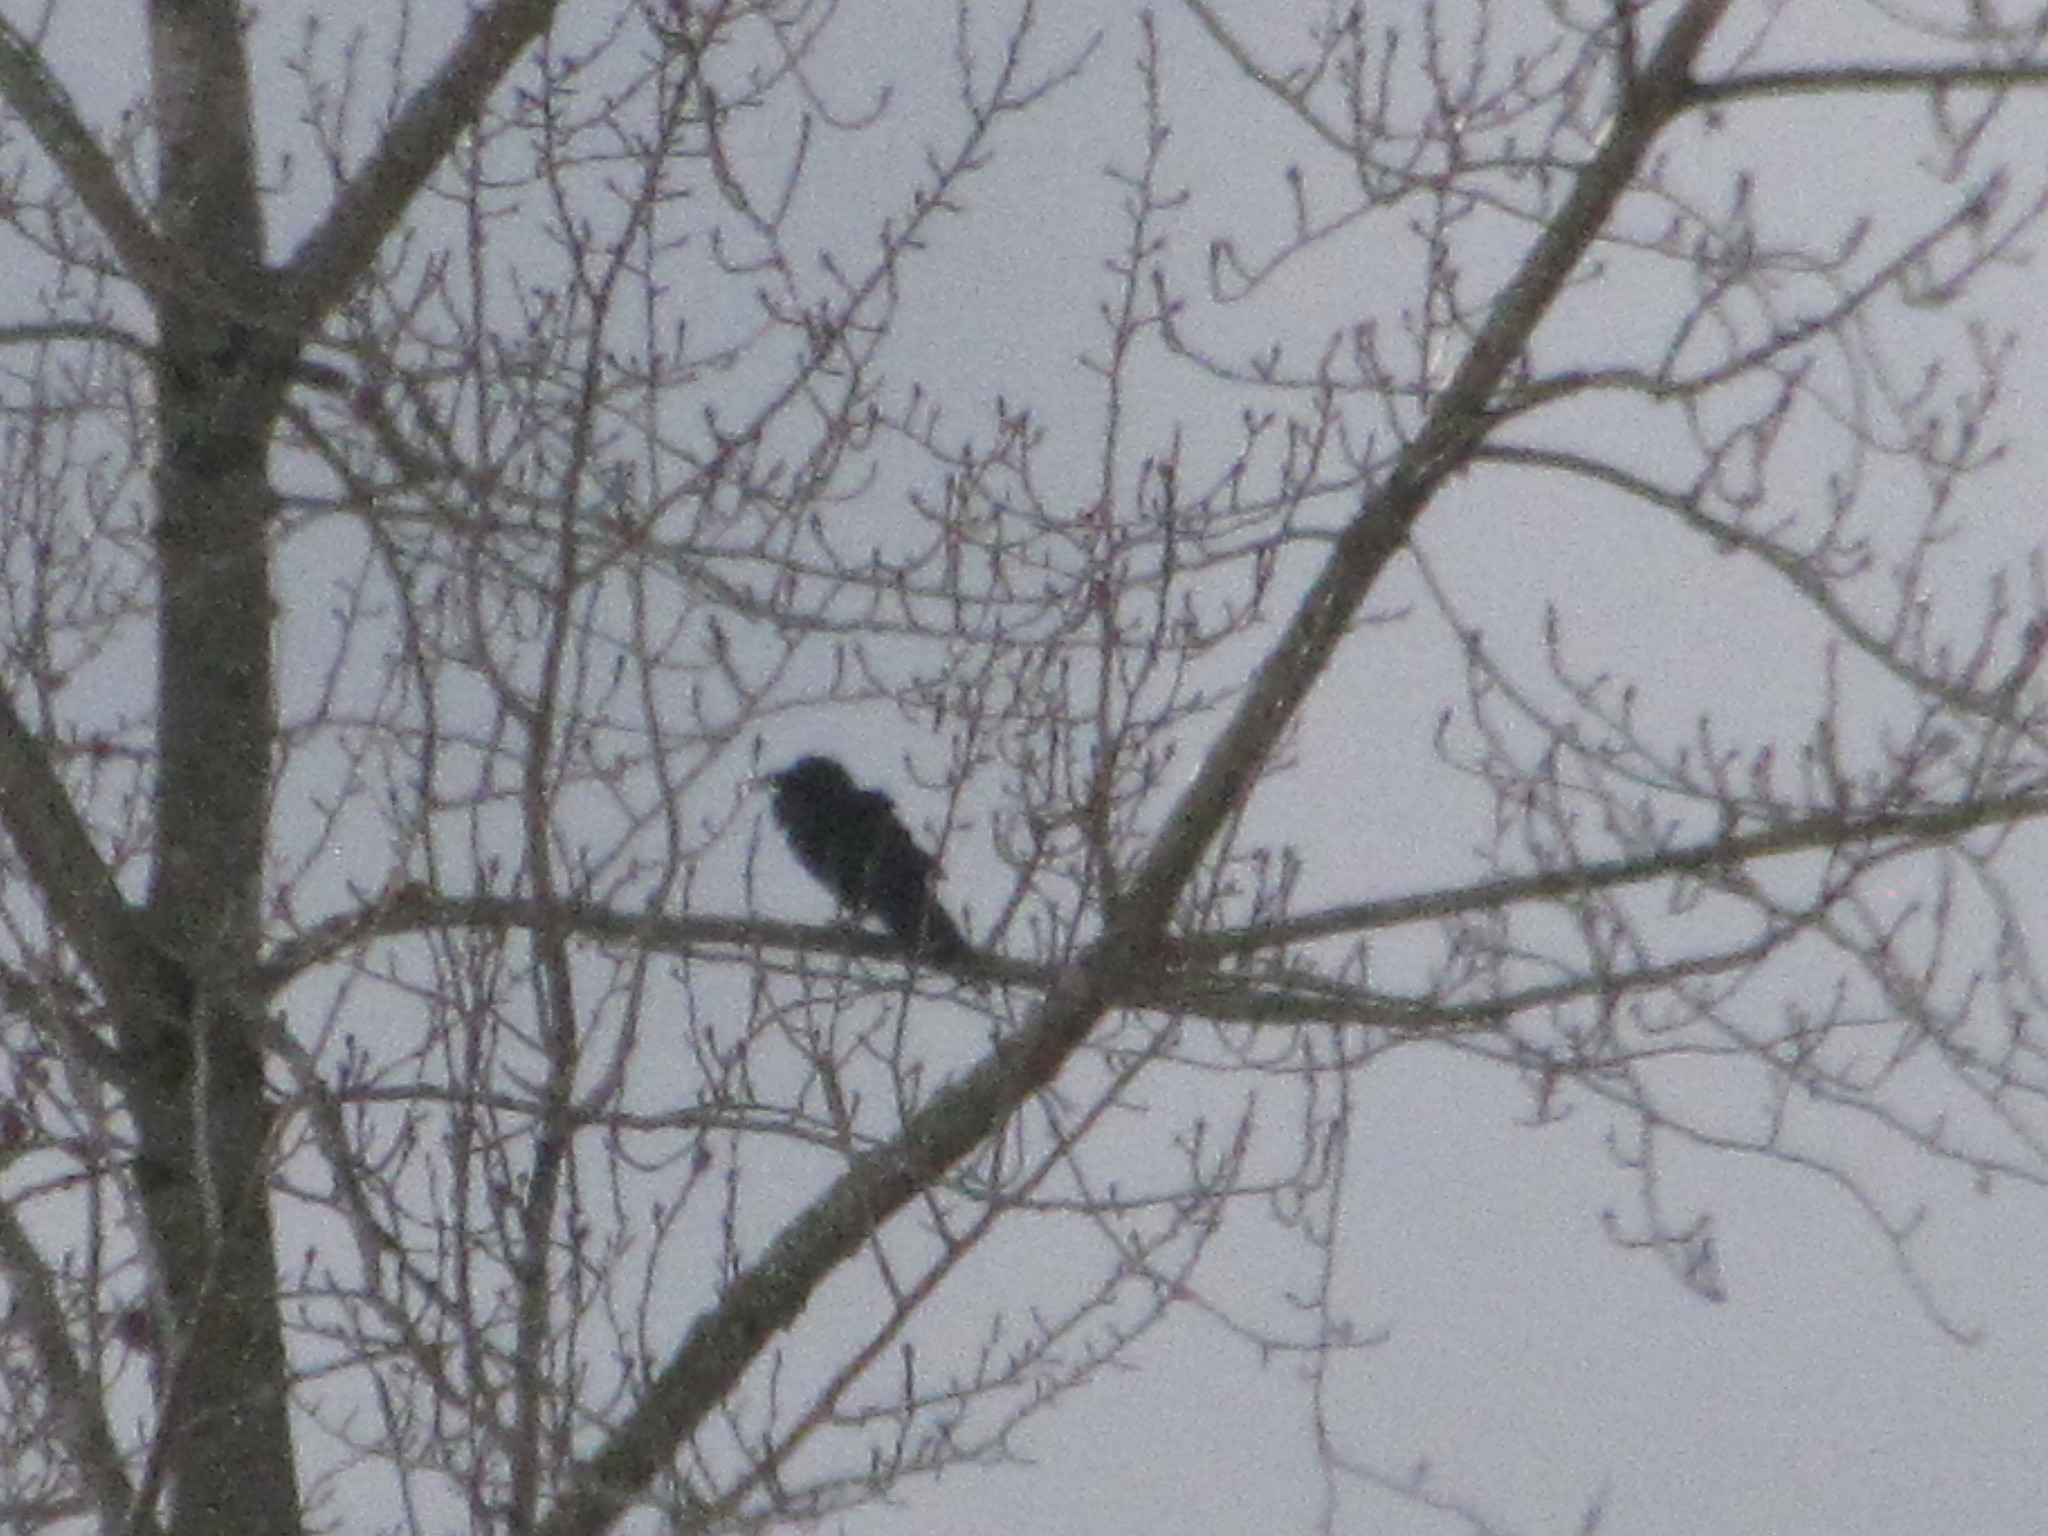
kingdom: Animalia
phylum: Chordata
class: Aves
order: Passeriformes
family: Corvidae
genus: Corvus
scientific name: Corvus corax
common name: Common raven
